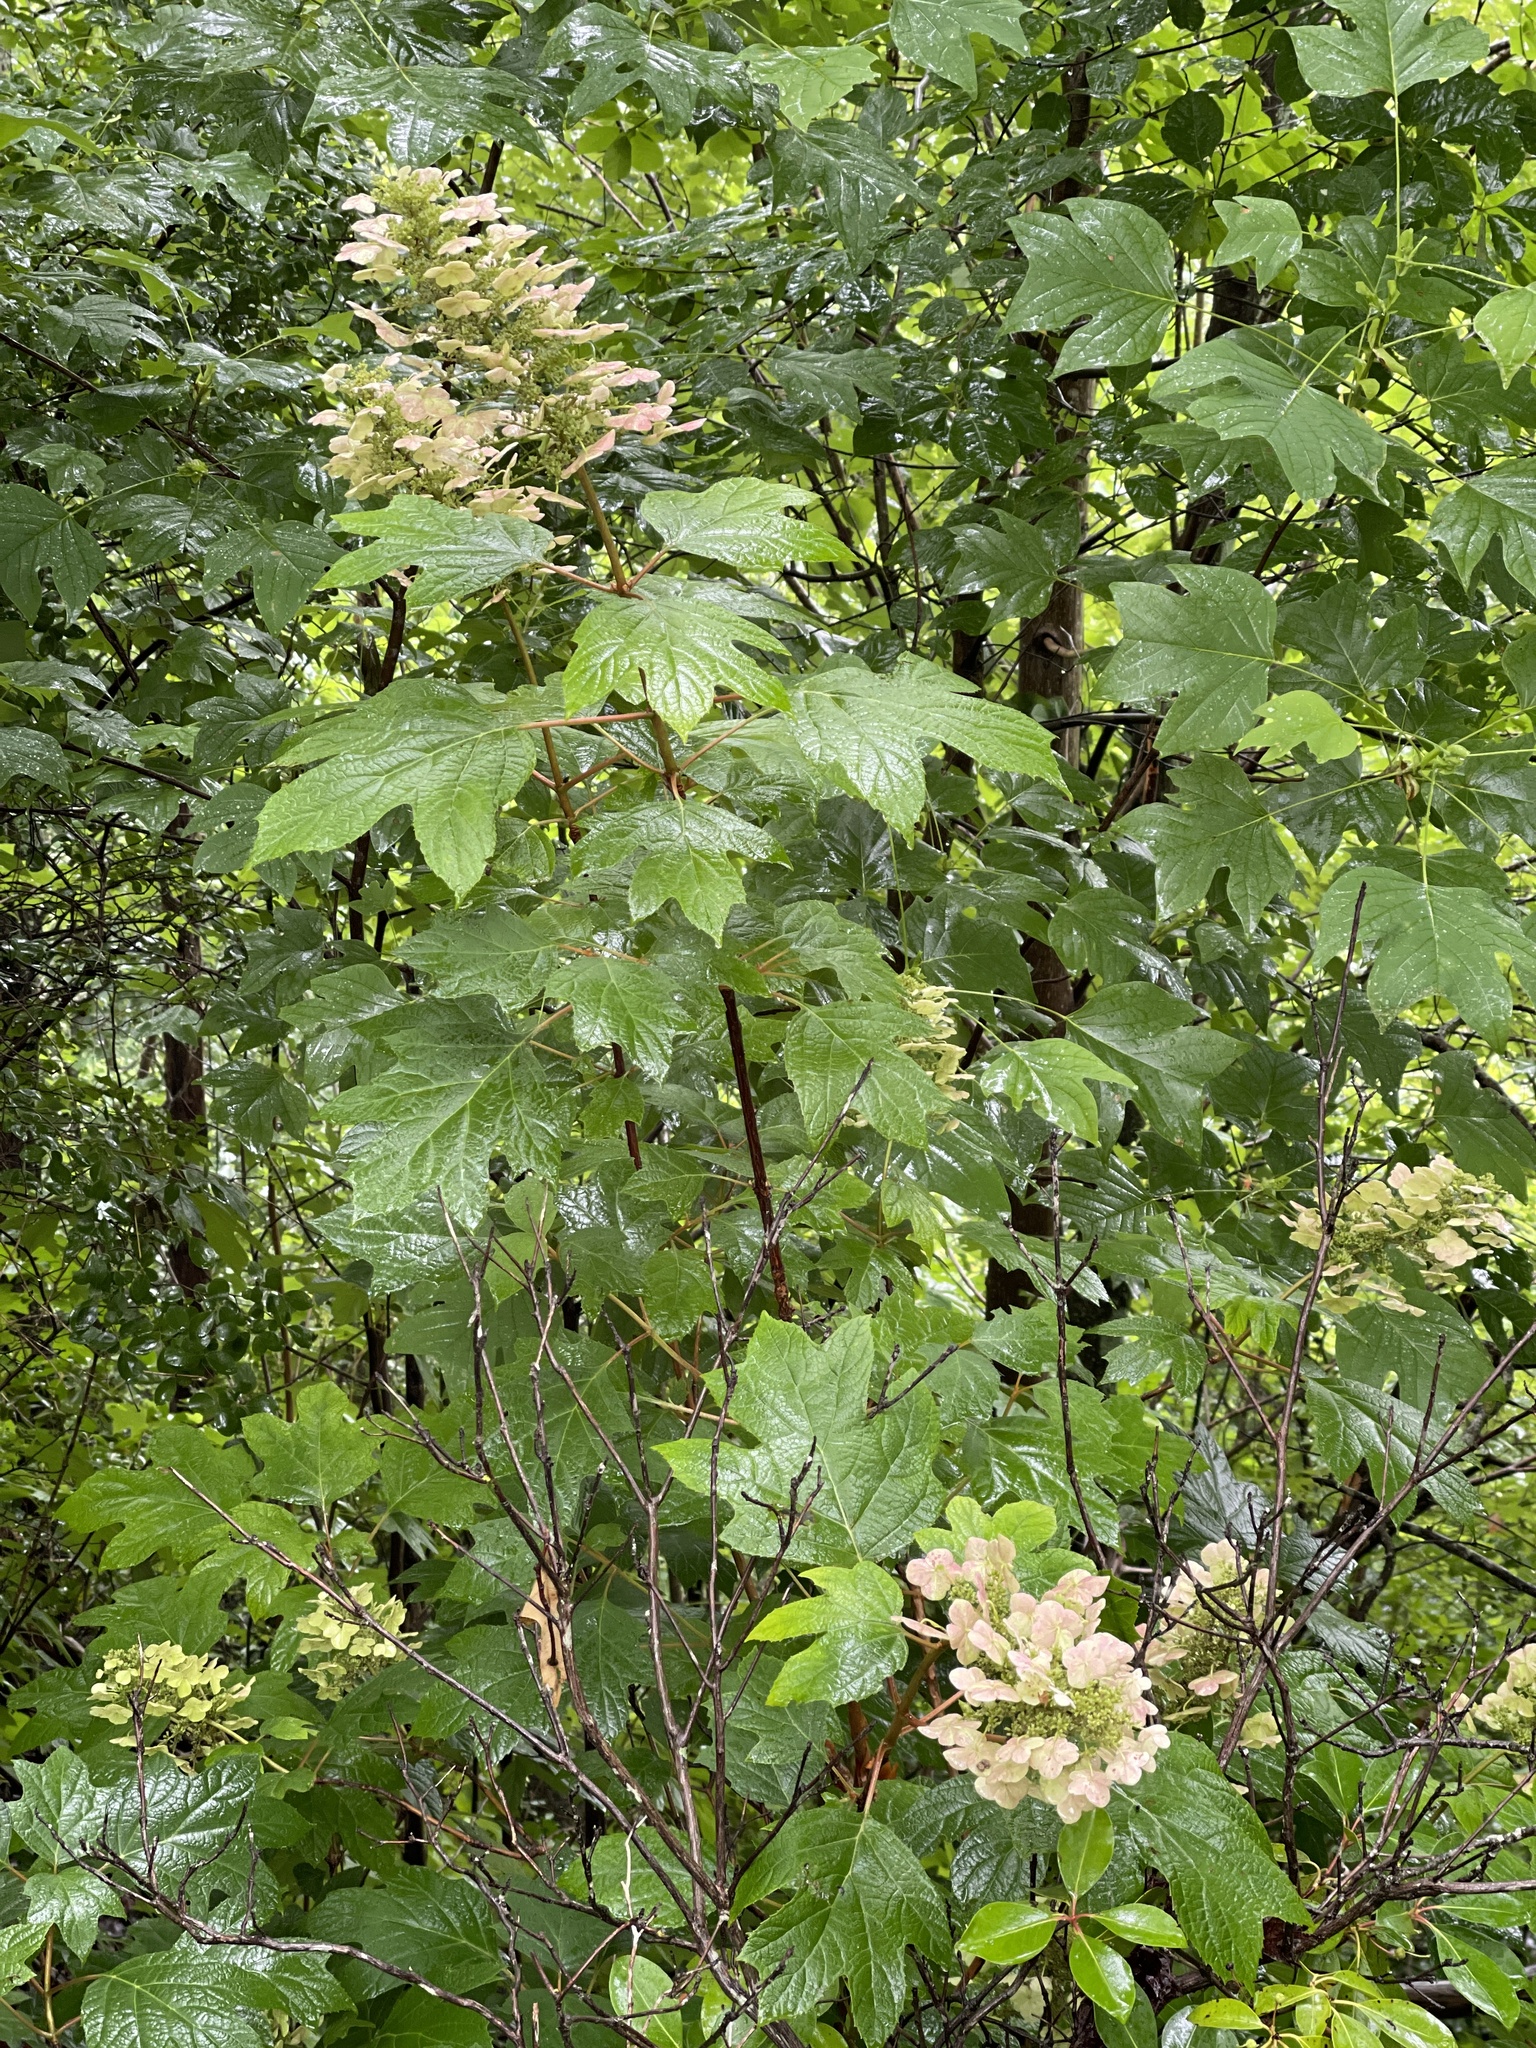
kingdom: Plantae
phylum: Tracheophyta
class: Magnoliopsida
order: Cornales
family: Hydrangeaceae
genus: Hydrangea
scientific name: Hydrangea quercifolia
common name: Oak-leaf hydrangea
